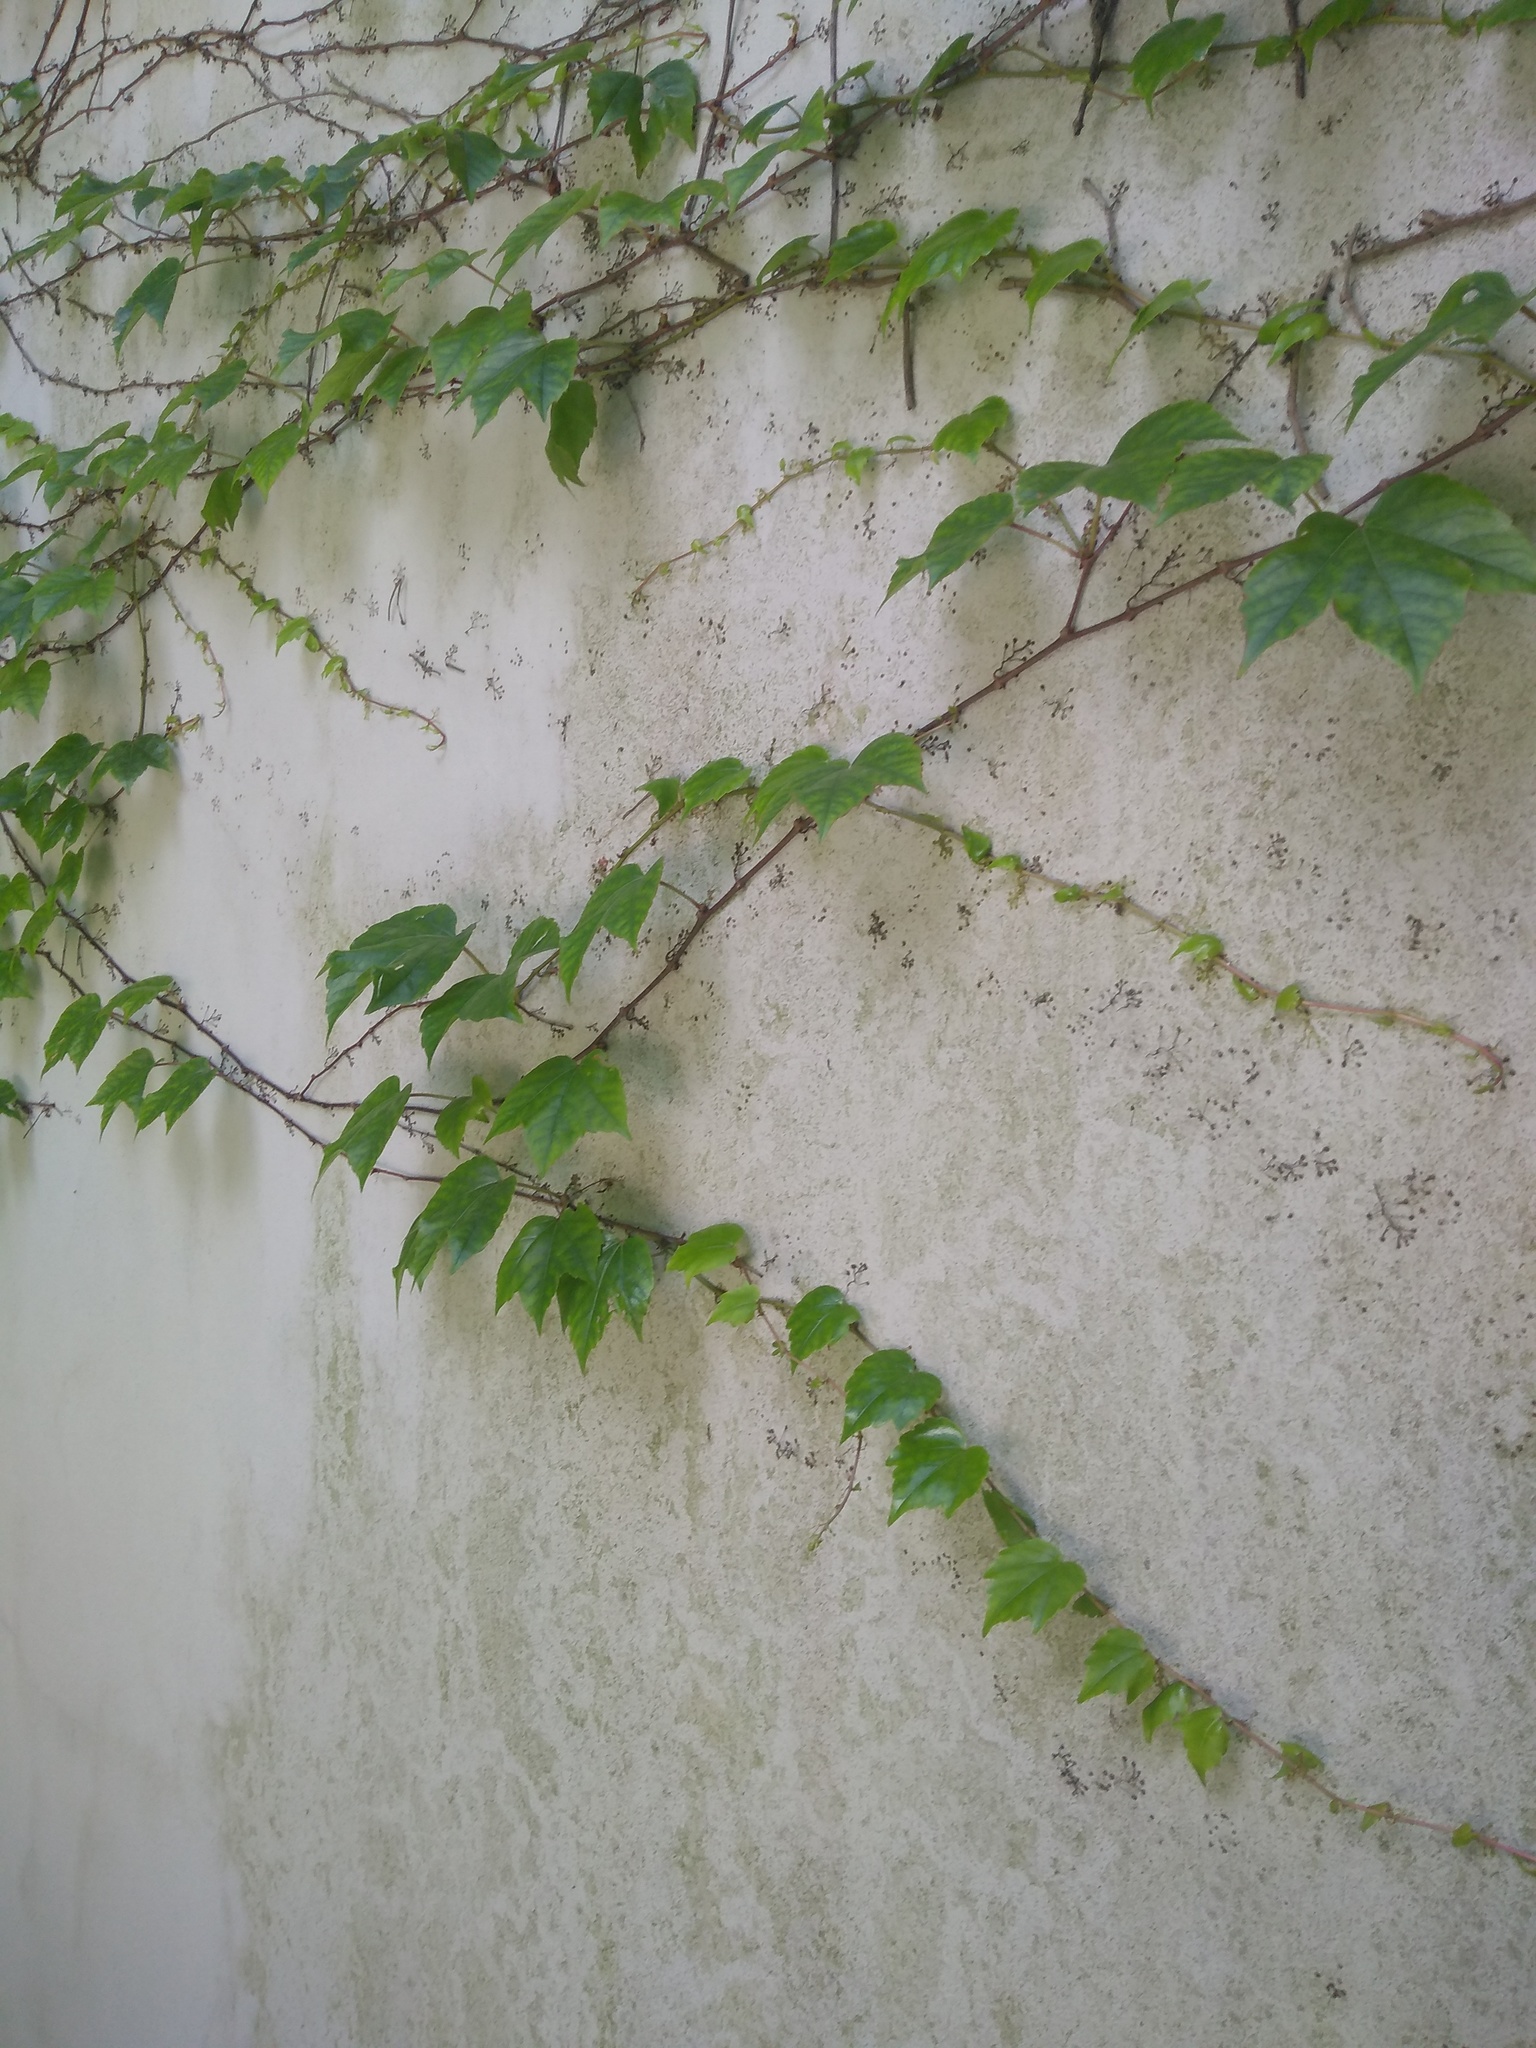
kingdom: Plantae
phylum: Tracheophyta
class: Magnoliopsida
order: Vitales
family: Vitaceae
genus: Parthenocissus
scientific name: Parthenocissus tricuspidata
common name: Boston ivy
